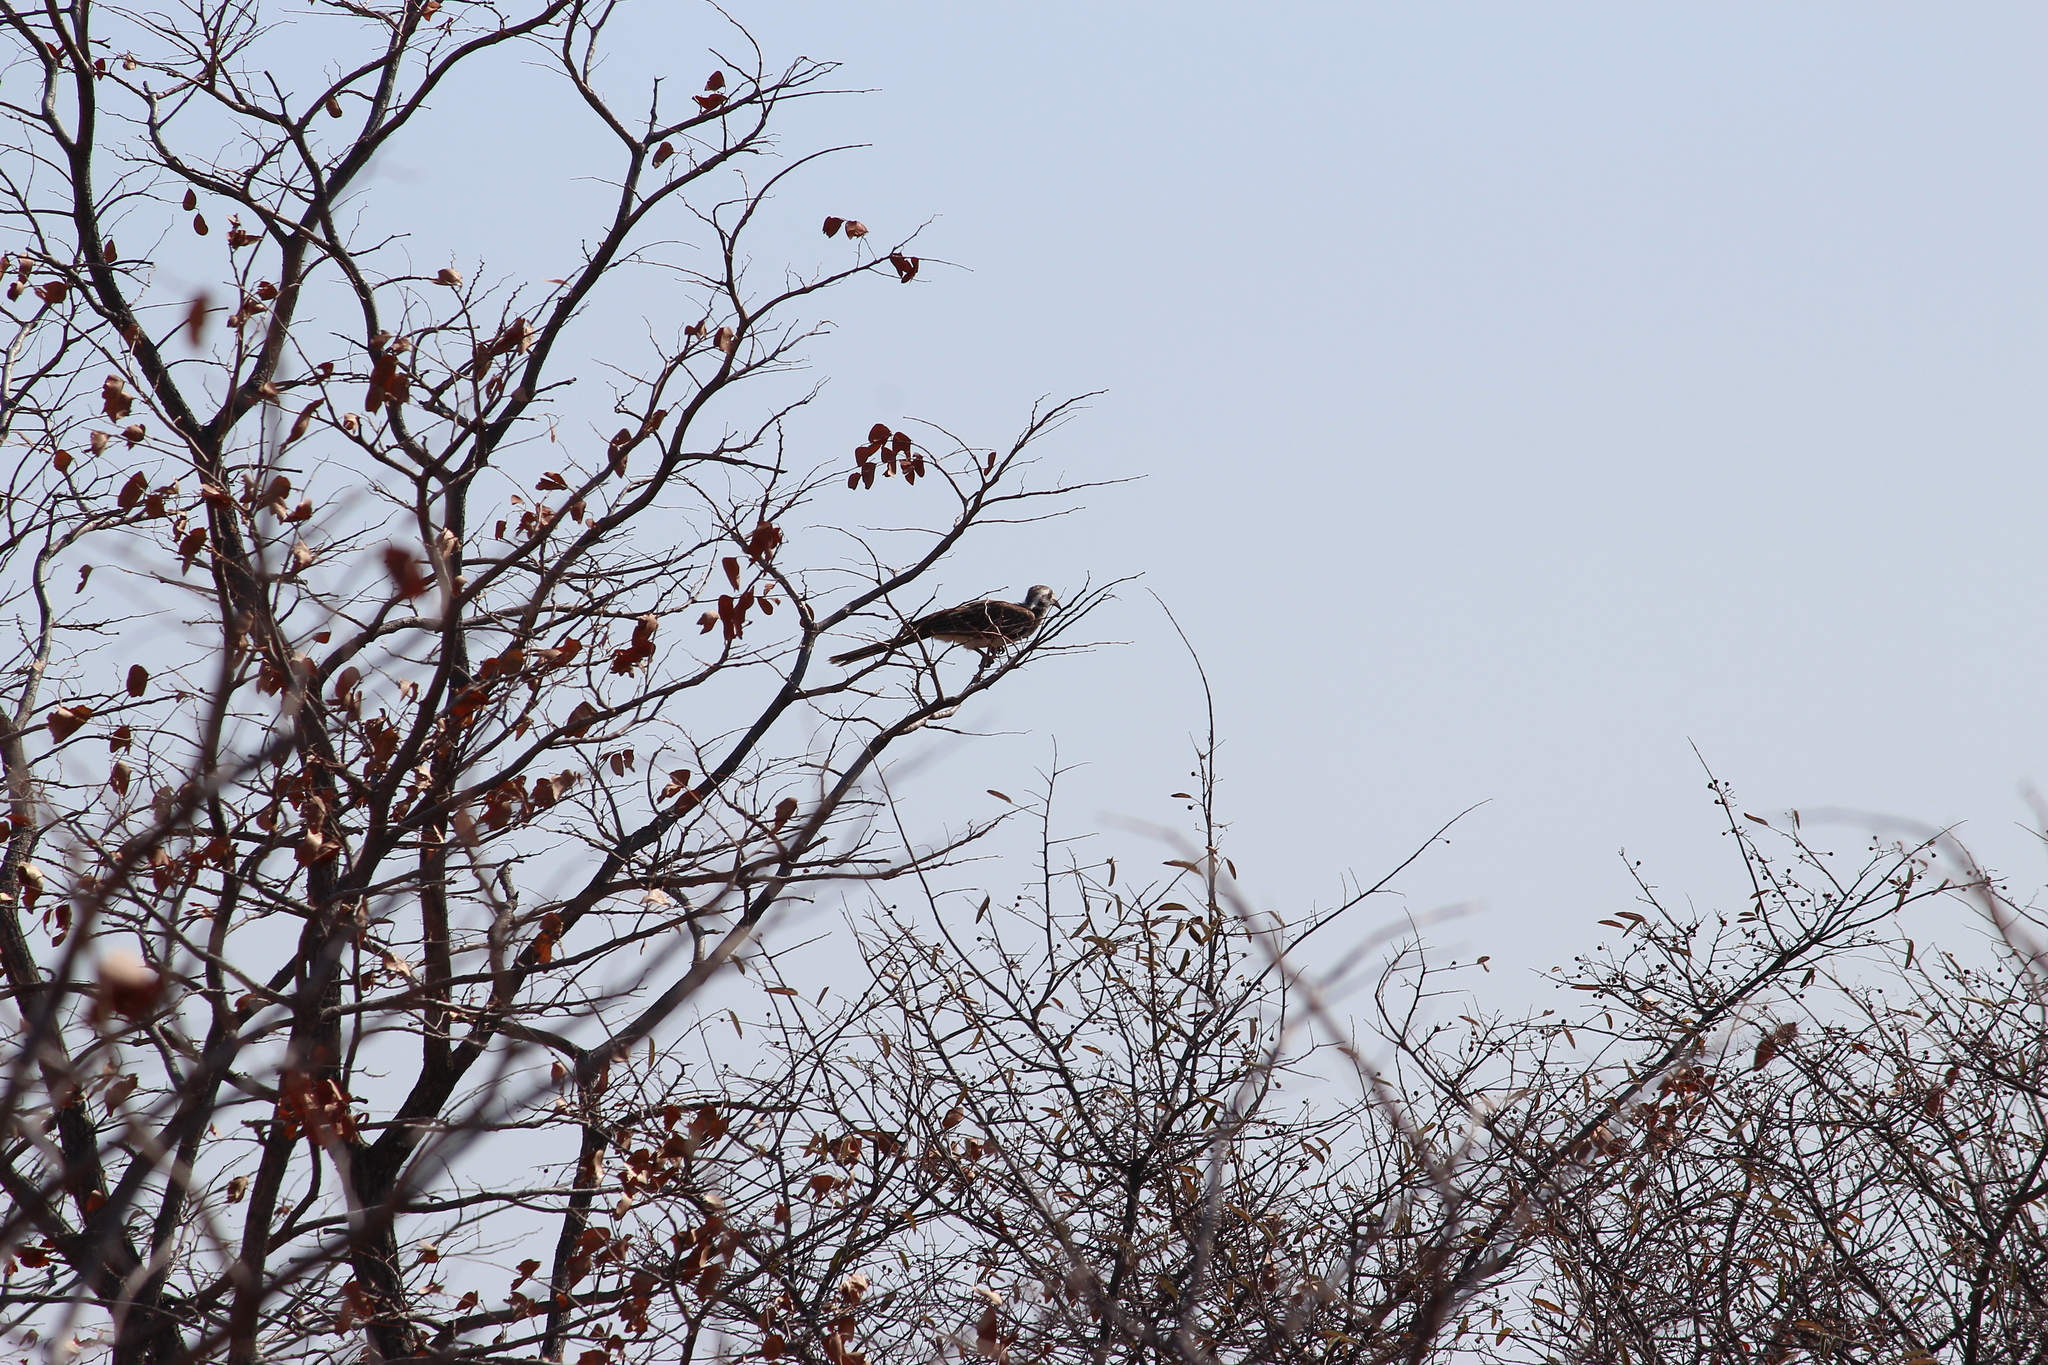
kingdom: Animalia
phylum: Chordata
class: Aves
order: Bucerotiformes
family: Bucerotidae
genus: Lophoceros
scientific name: Lophoceros nasutus
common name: African grey hornbill
